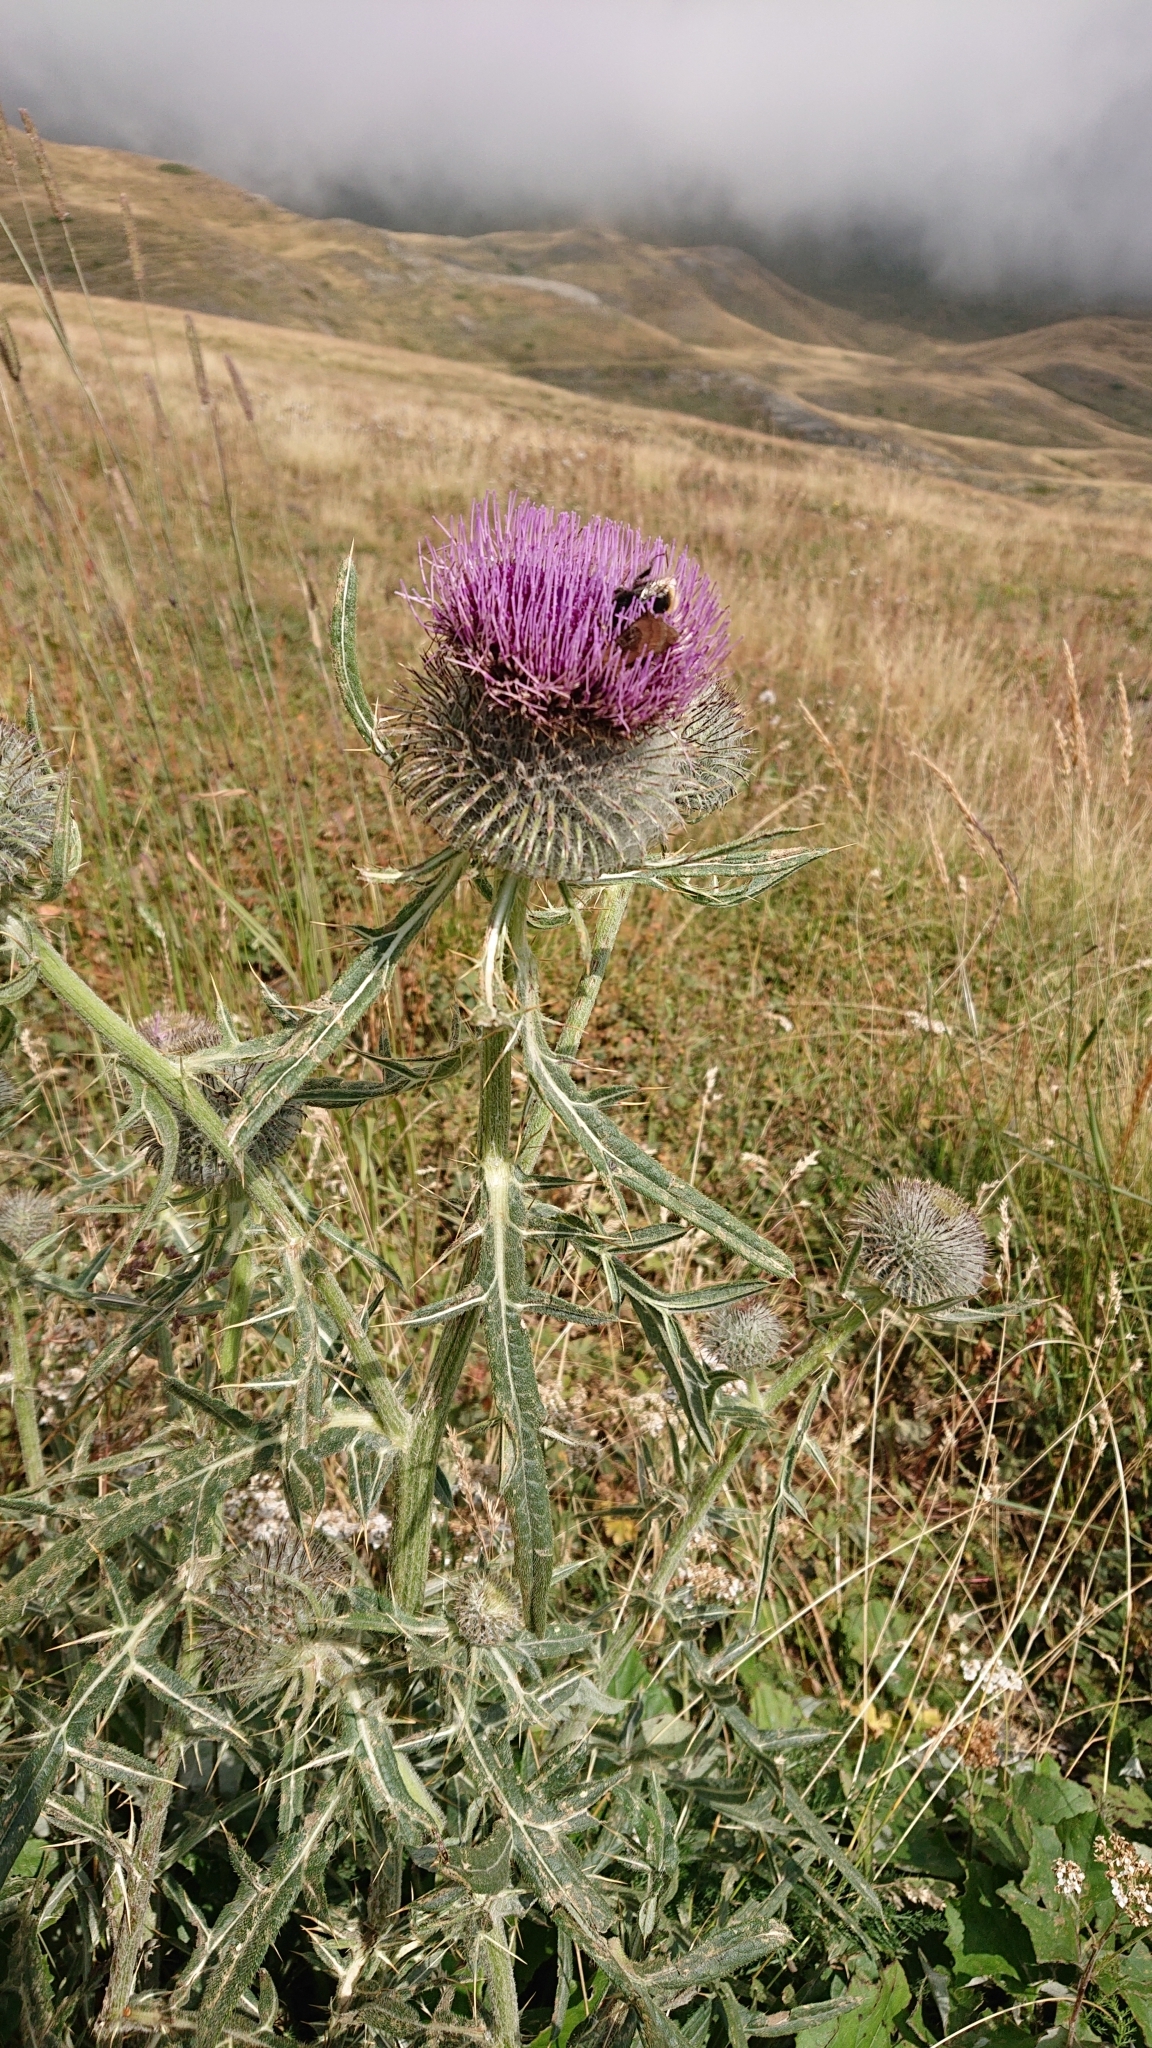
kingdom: Plantae
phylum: Tracheophyta
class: Magnoliopsida
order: Asterales
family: Asteraceae
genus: Lophiolepis
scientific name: Lophiolepis eriophora
